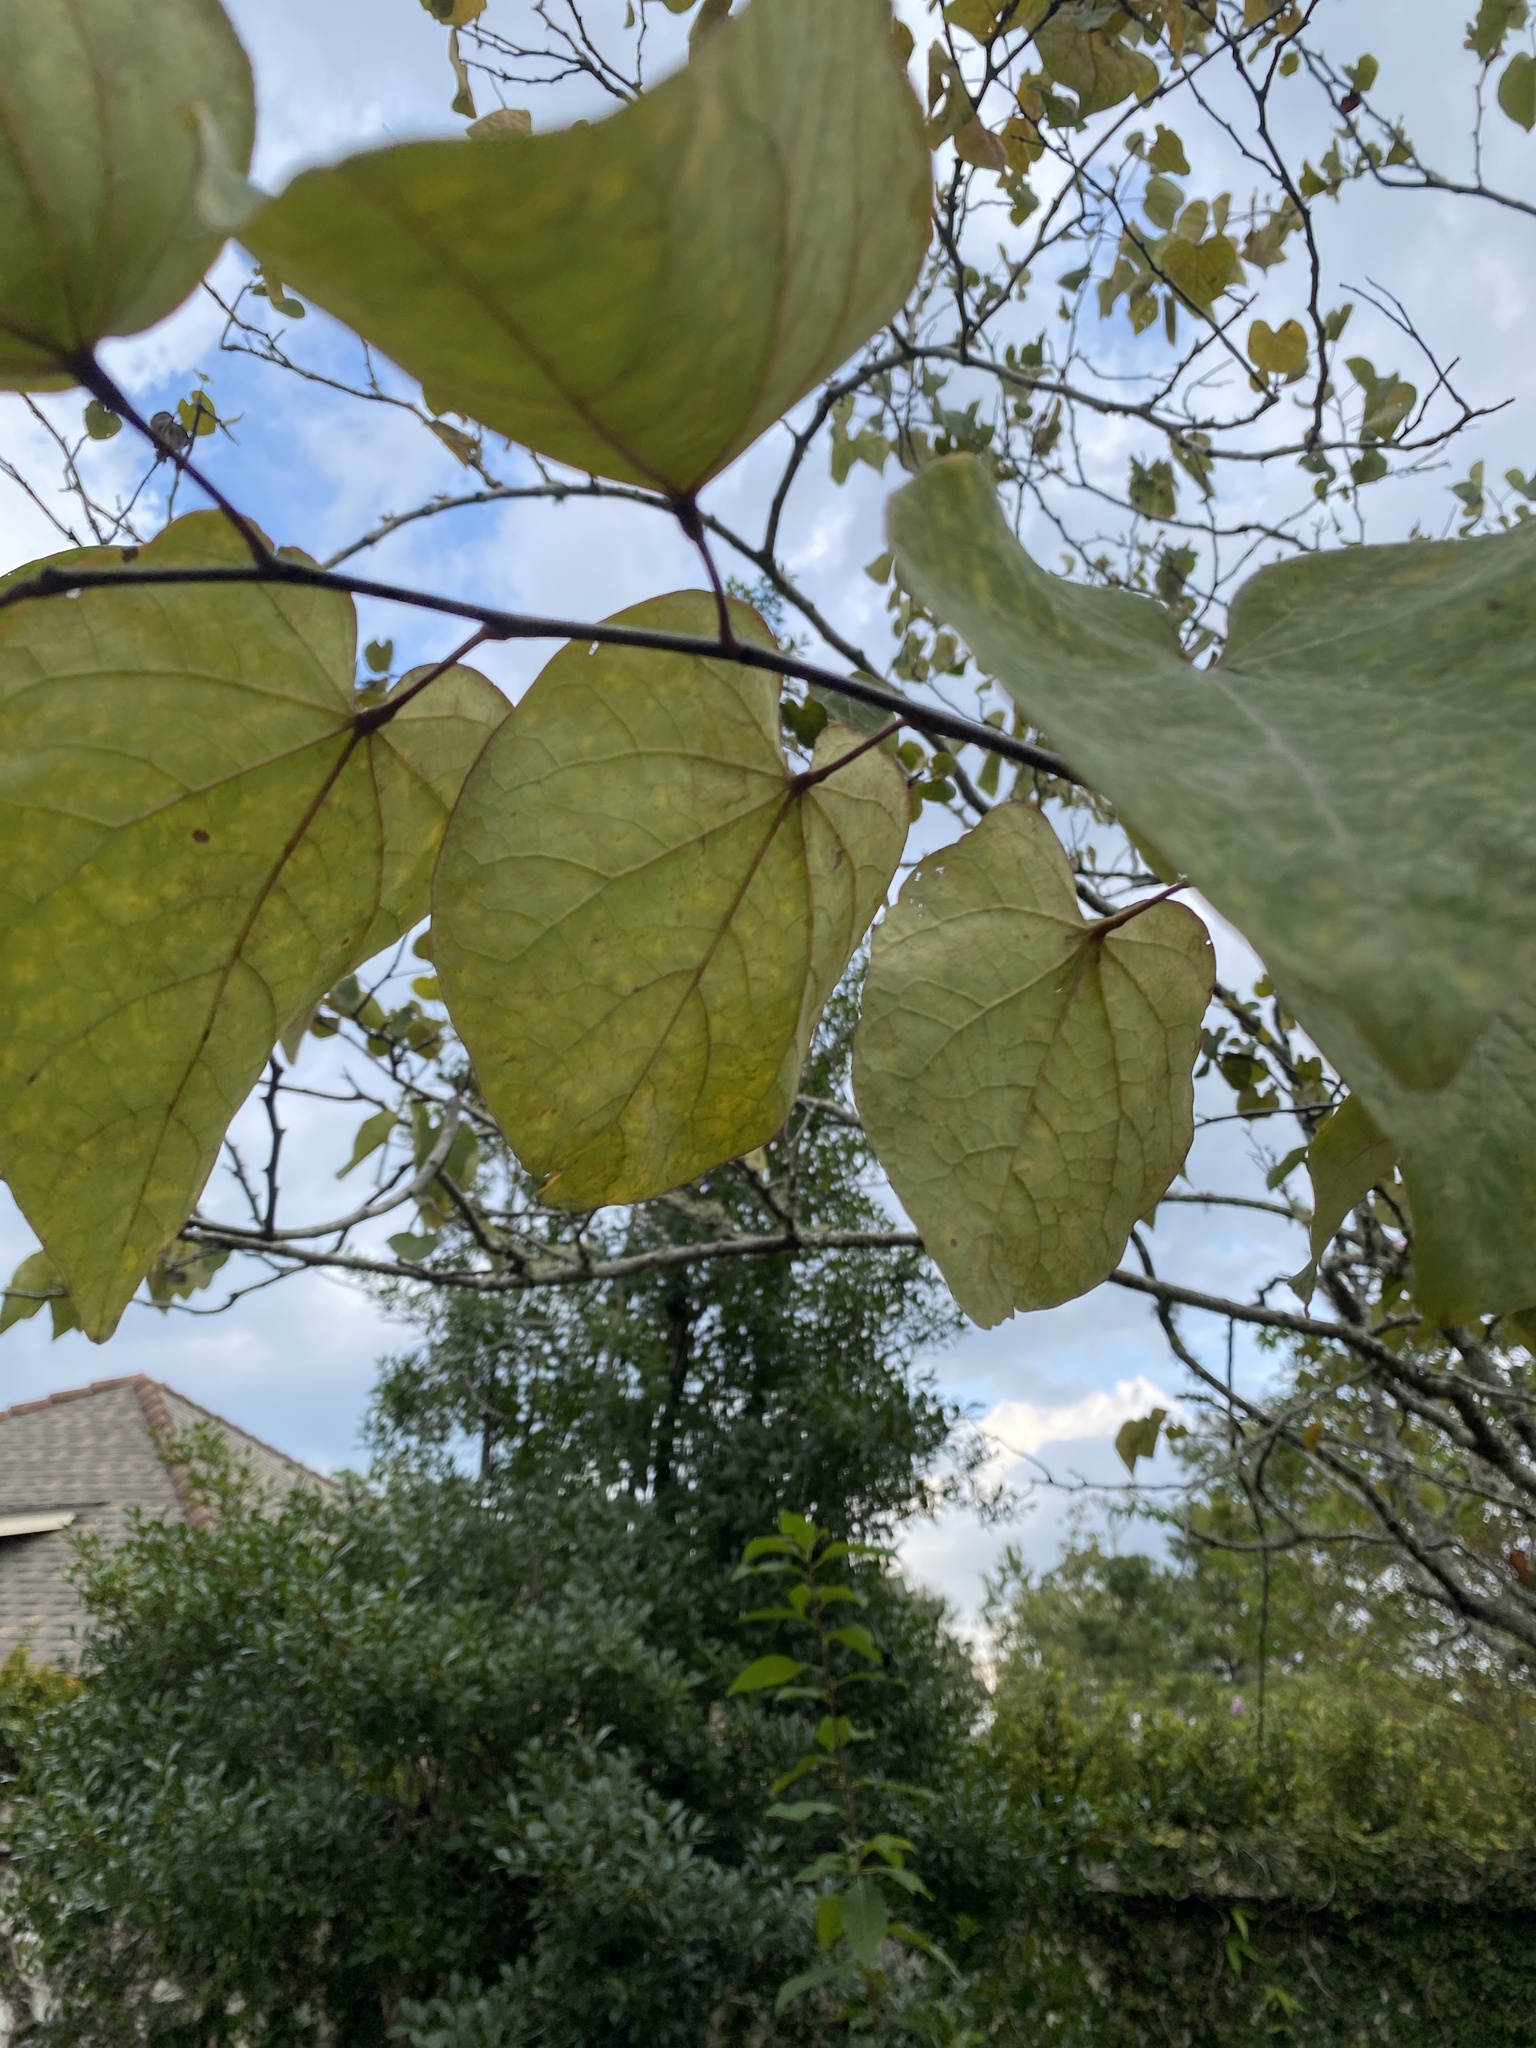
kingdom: Plantae
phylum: Tracheophyta
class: Magnoliopsida
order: Fabales
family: Fabaceae
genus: Cercis
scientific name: Cercis canadensis
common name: Eastern redbud
